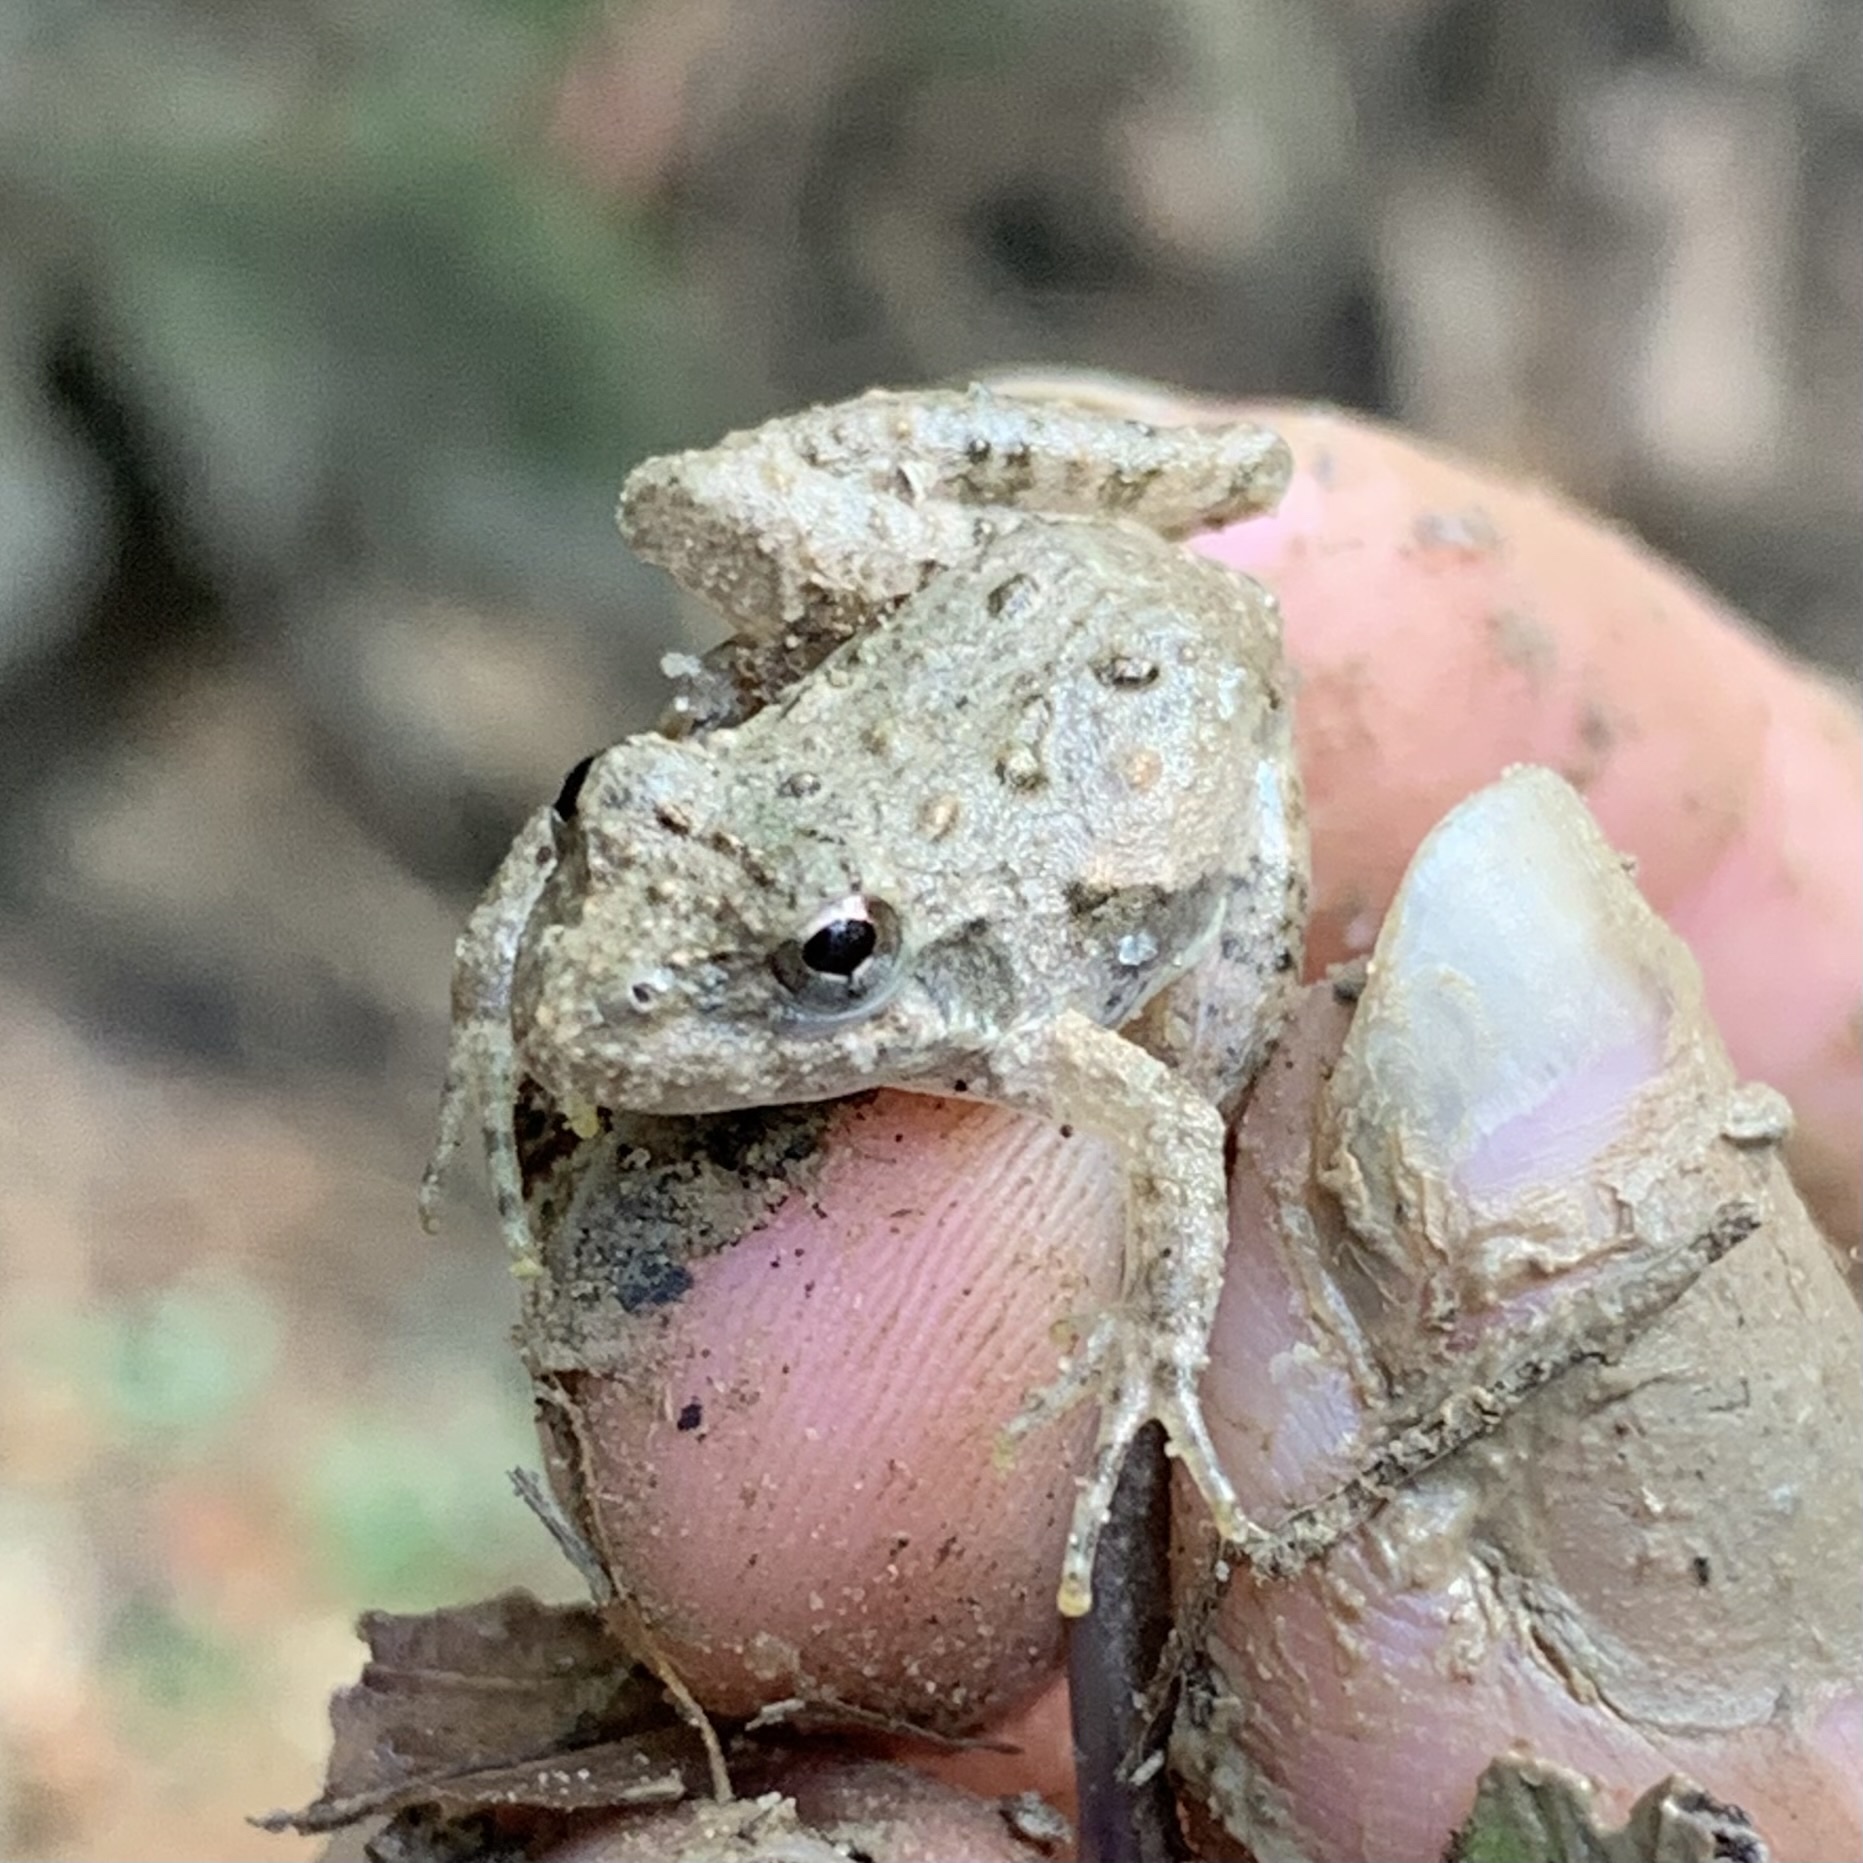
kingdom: Animalia
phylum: Chordata
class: Amphibia
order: Anura
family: Hylidae
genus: Acris
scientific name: Acris blanchardi
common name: Blanchard's cricket frog
